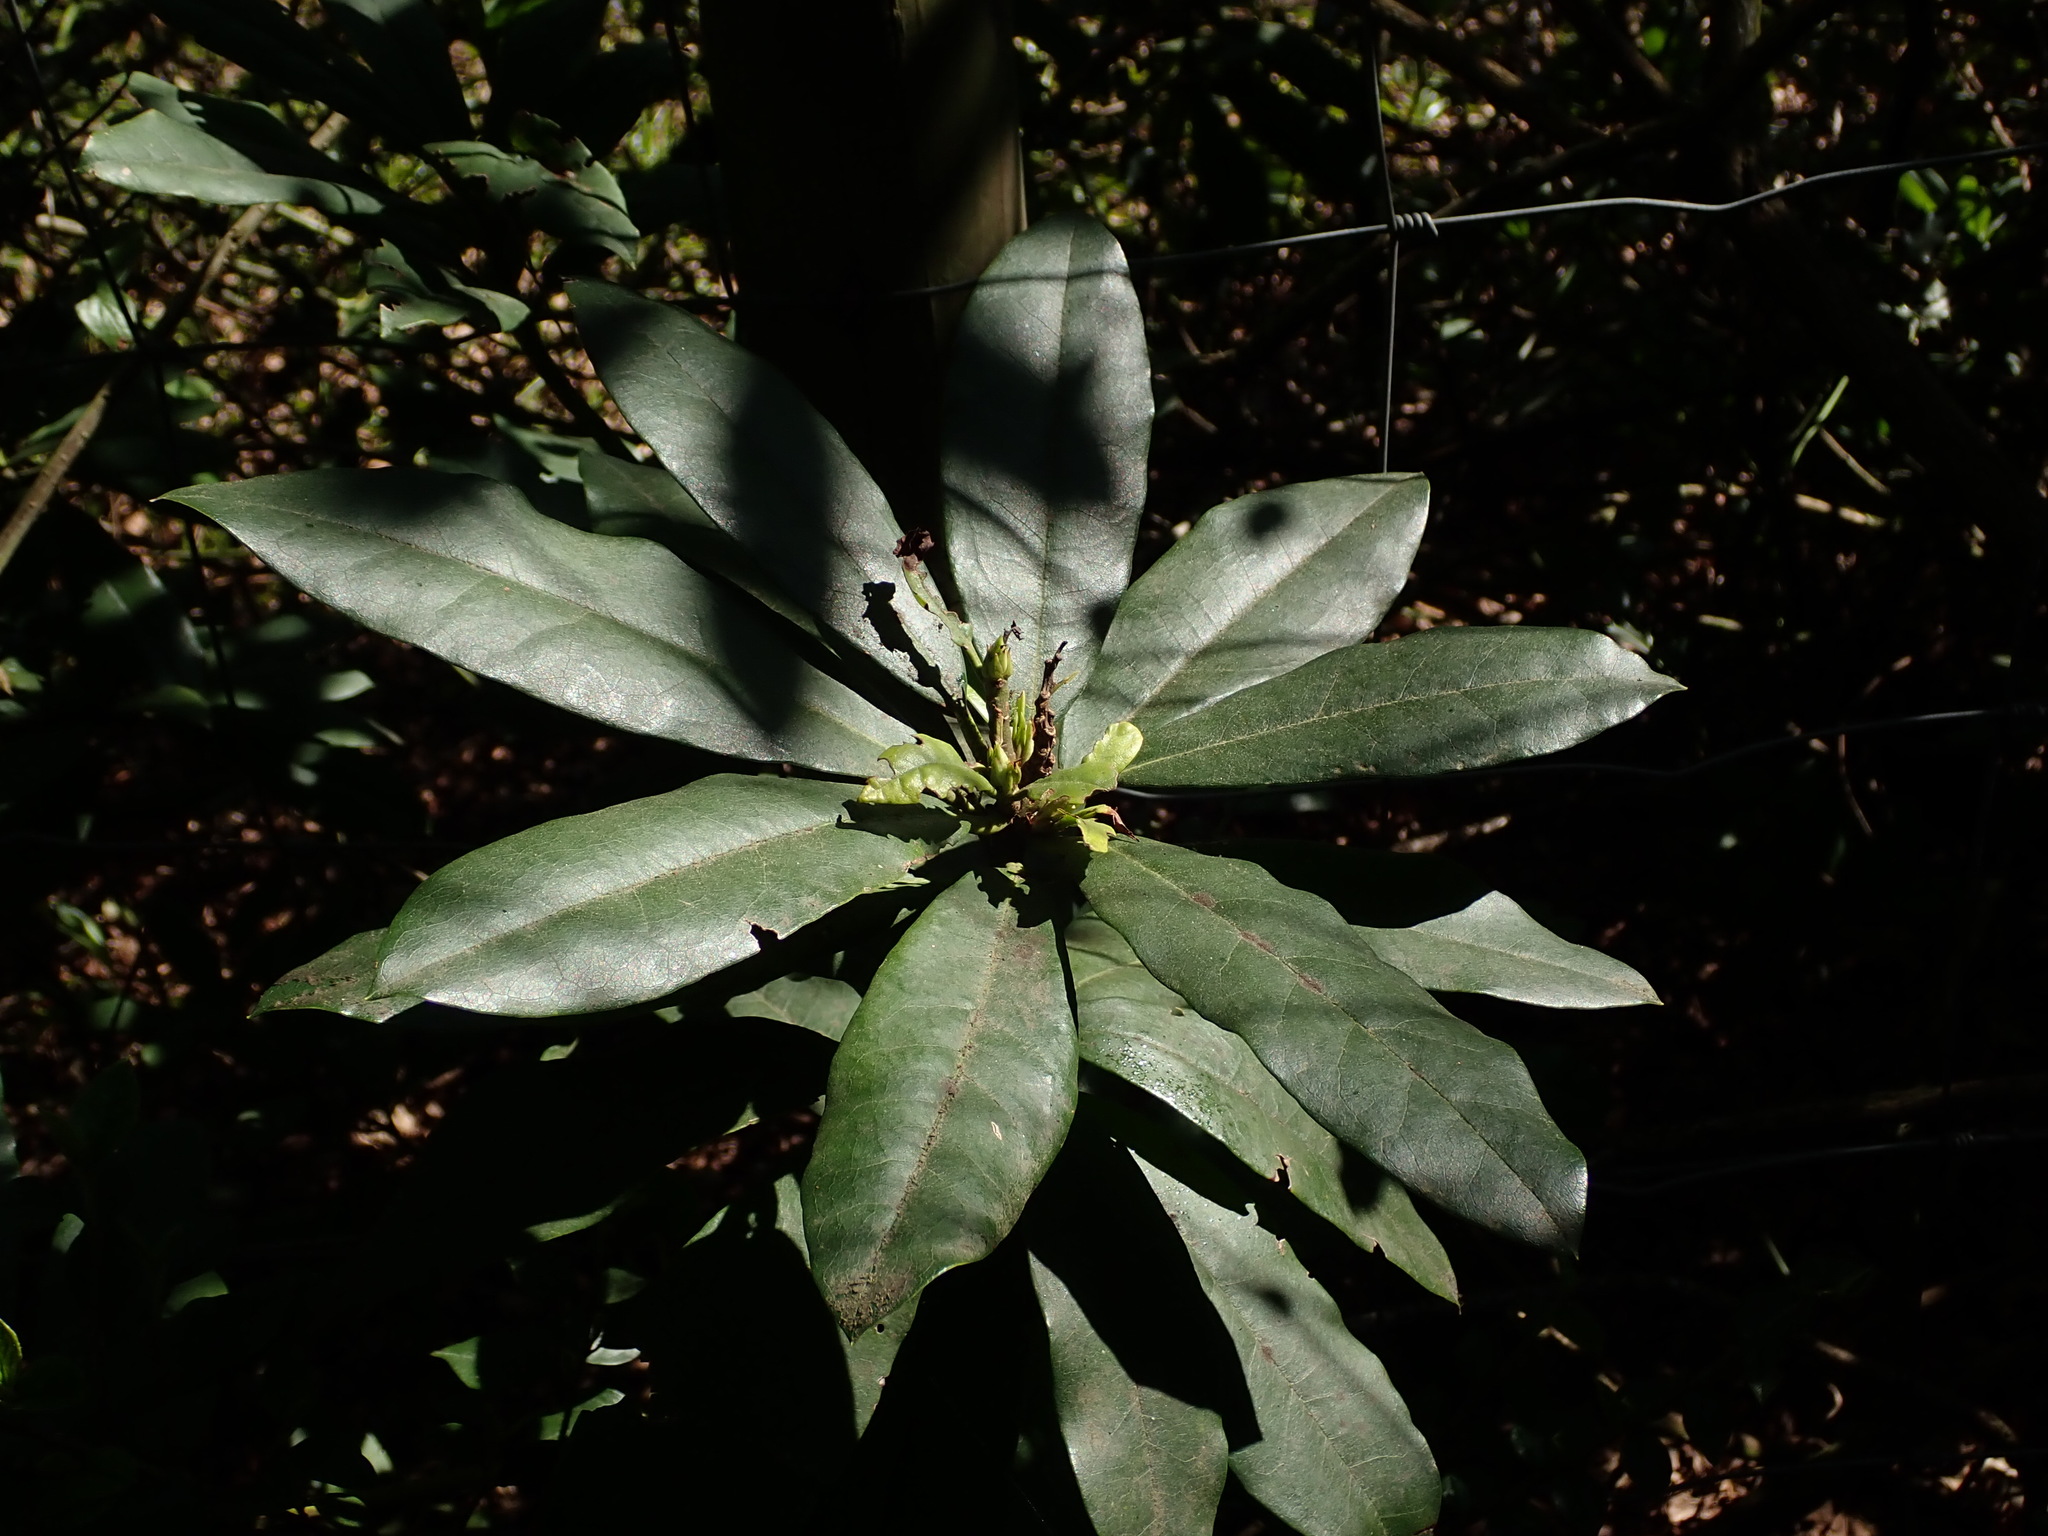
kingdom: Plantae
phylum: Tracheophyta
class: Magnoliopsida
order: Ericales
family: Ericaceae
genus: Rhododendron
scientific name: Rhododendron ponticum
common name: Rhododendron
